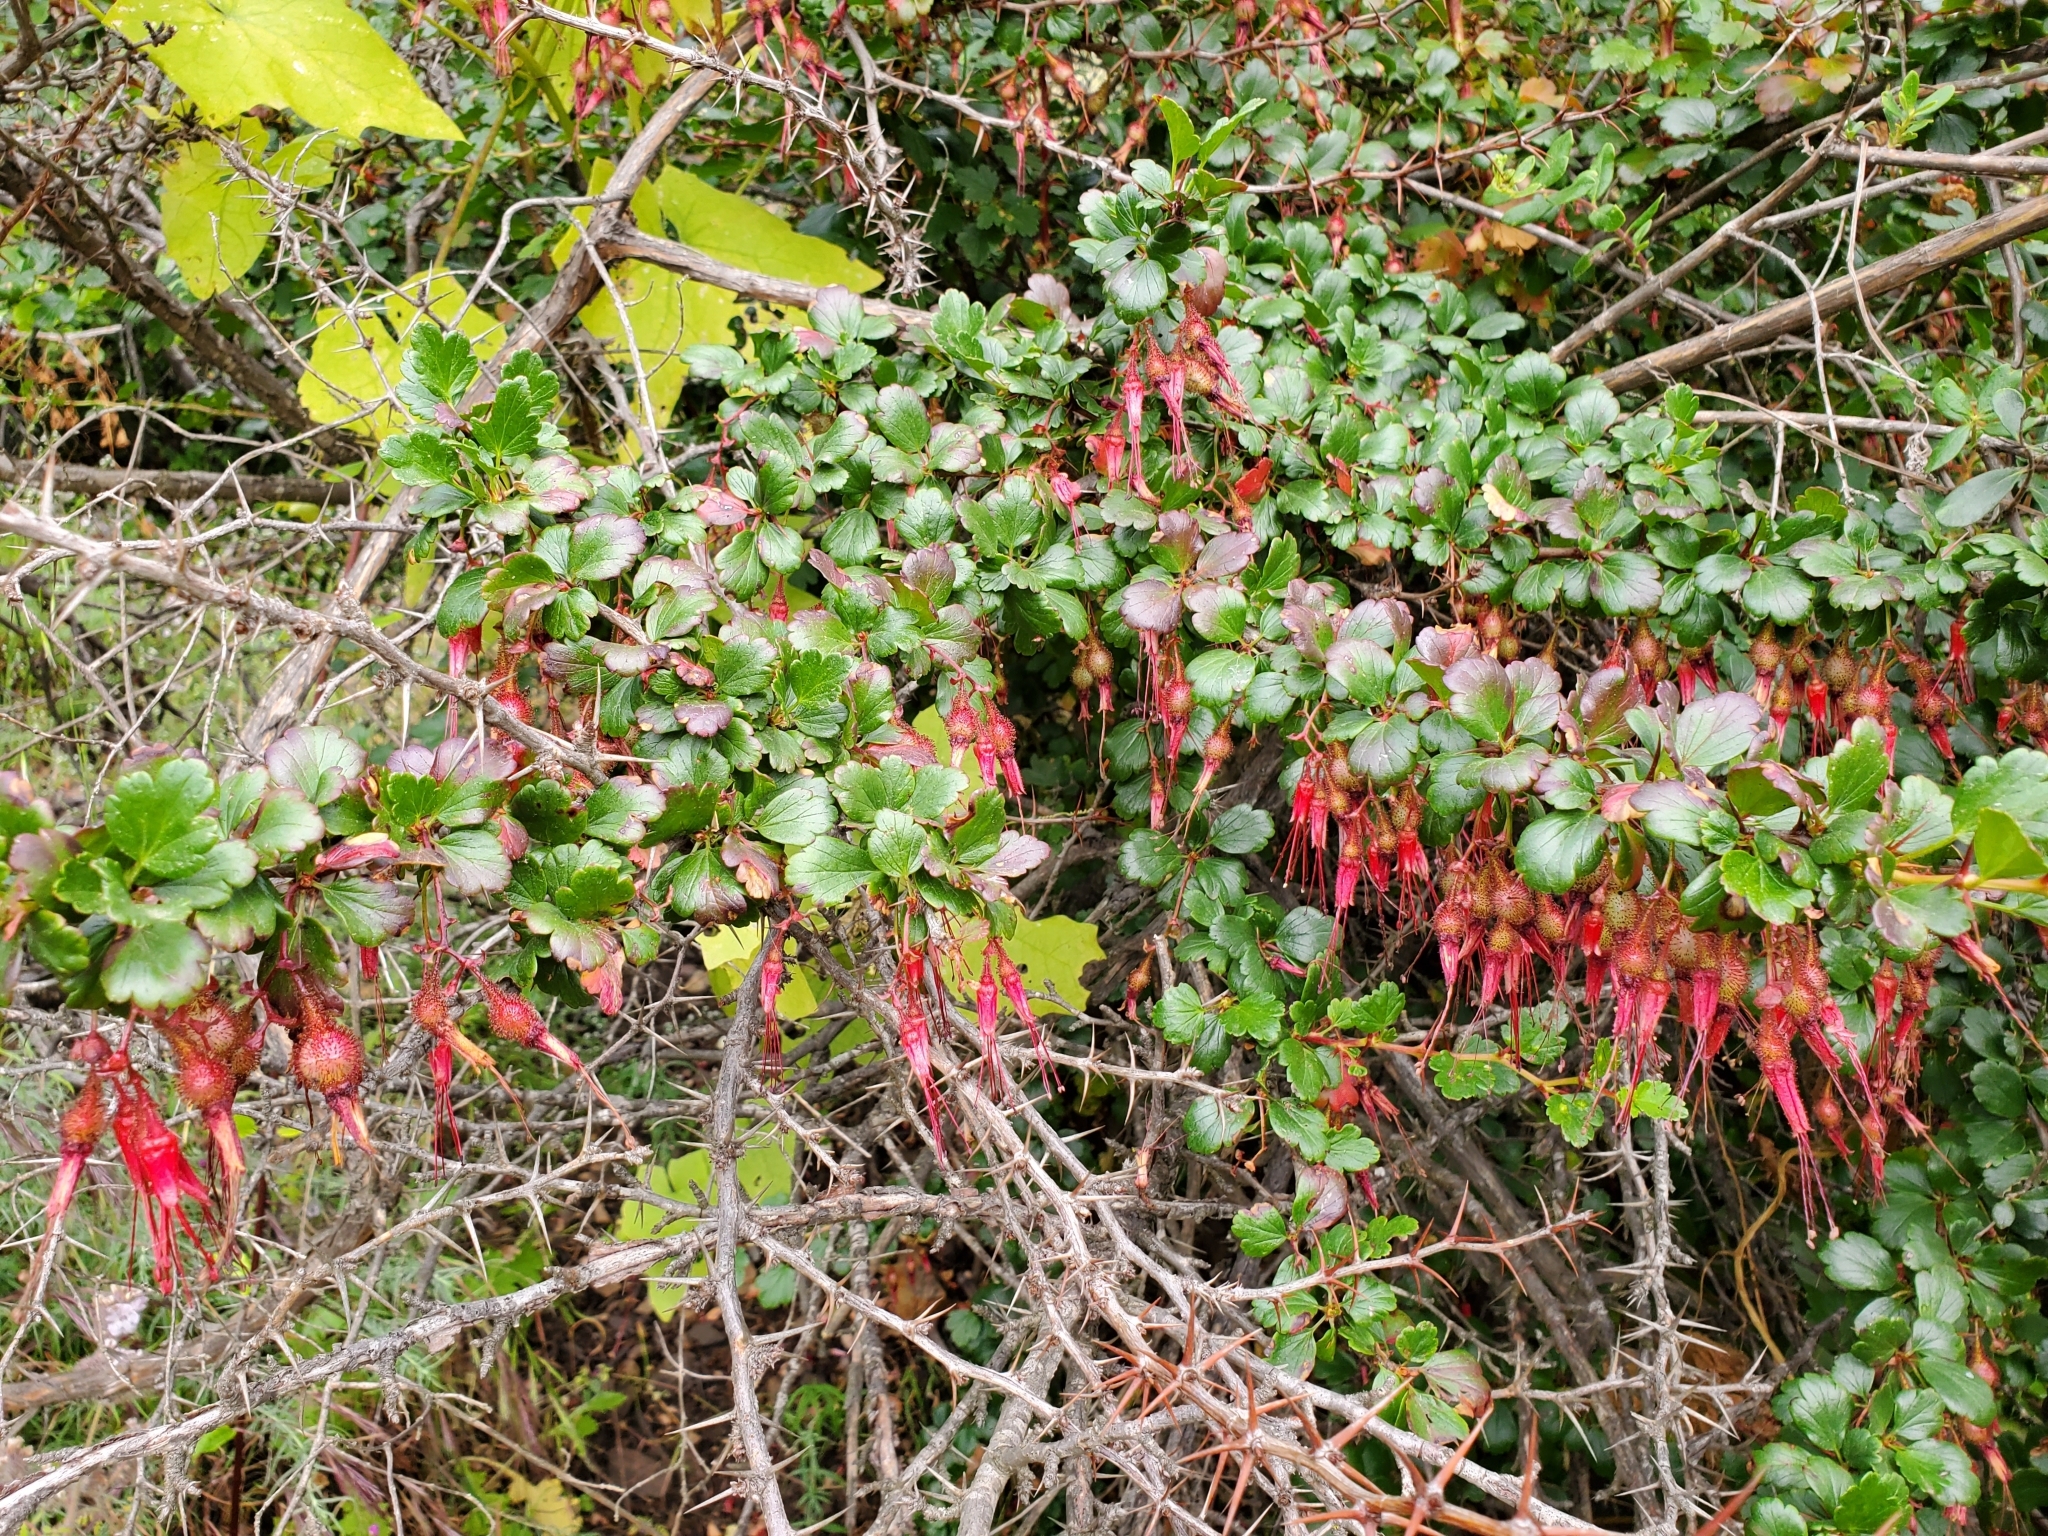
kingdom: Plantae
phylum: Tracheophyta
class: Magnoliopsida
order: Saxifragales
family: Grossulariaceae
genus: Ribes
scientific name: Ribes speciosum
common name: Fuchsia-flower gooseberry
